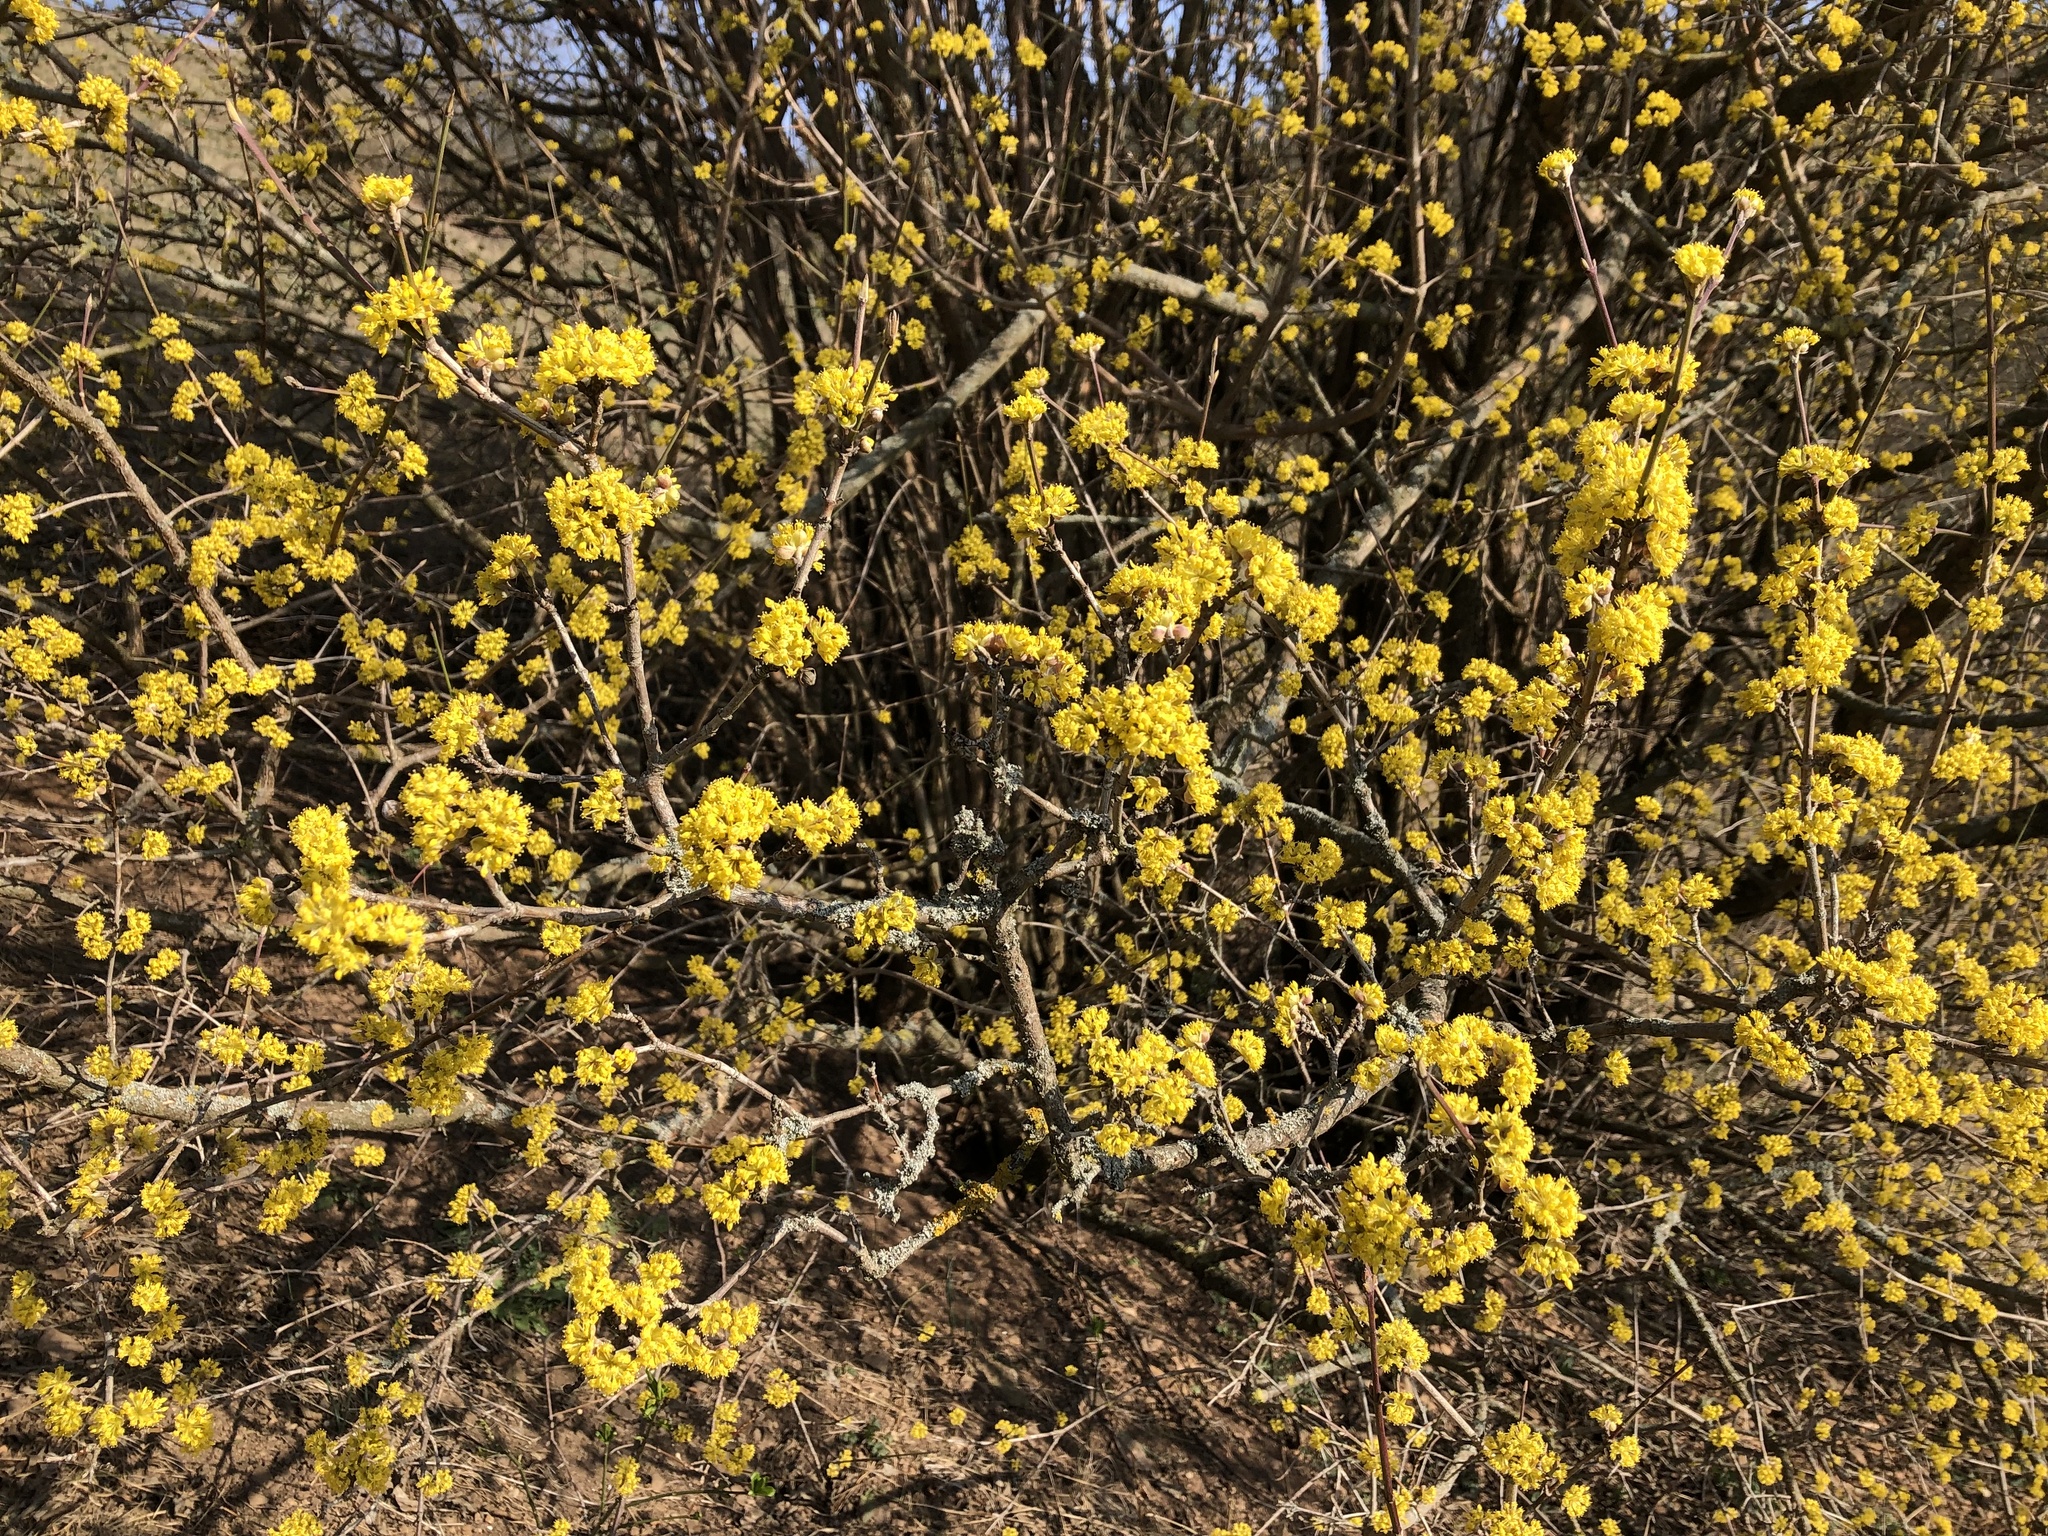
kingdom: Plantae
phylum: Tracheophyta
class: Magnoliopsida
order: Cornales
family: Cornaceae
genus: Cornus
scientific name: Cornus mas
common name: Cornelian-cherry
